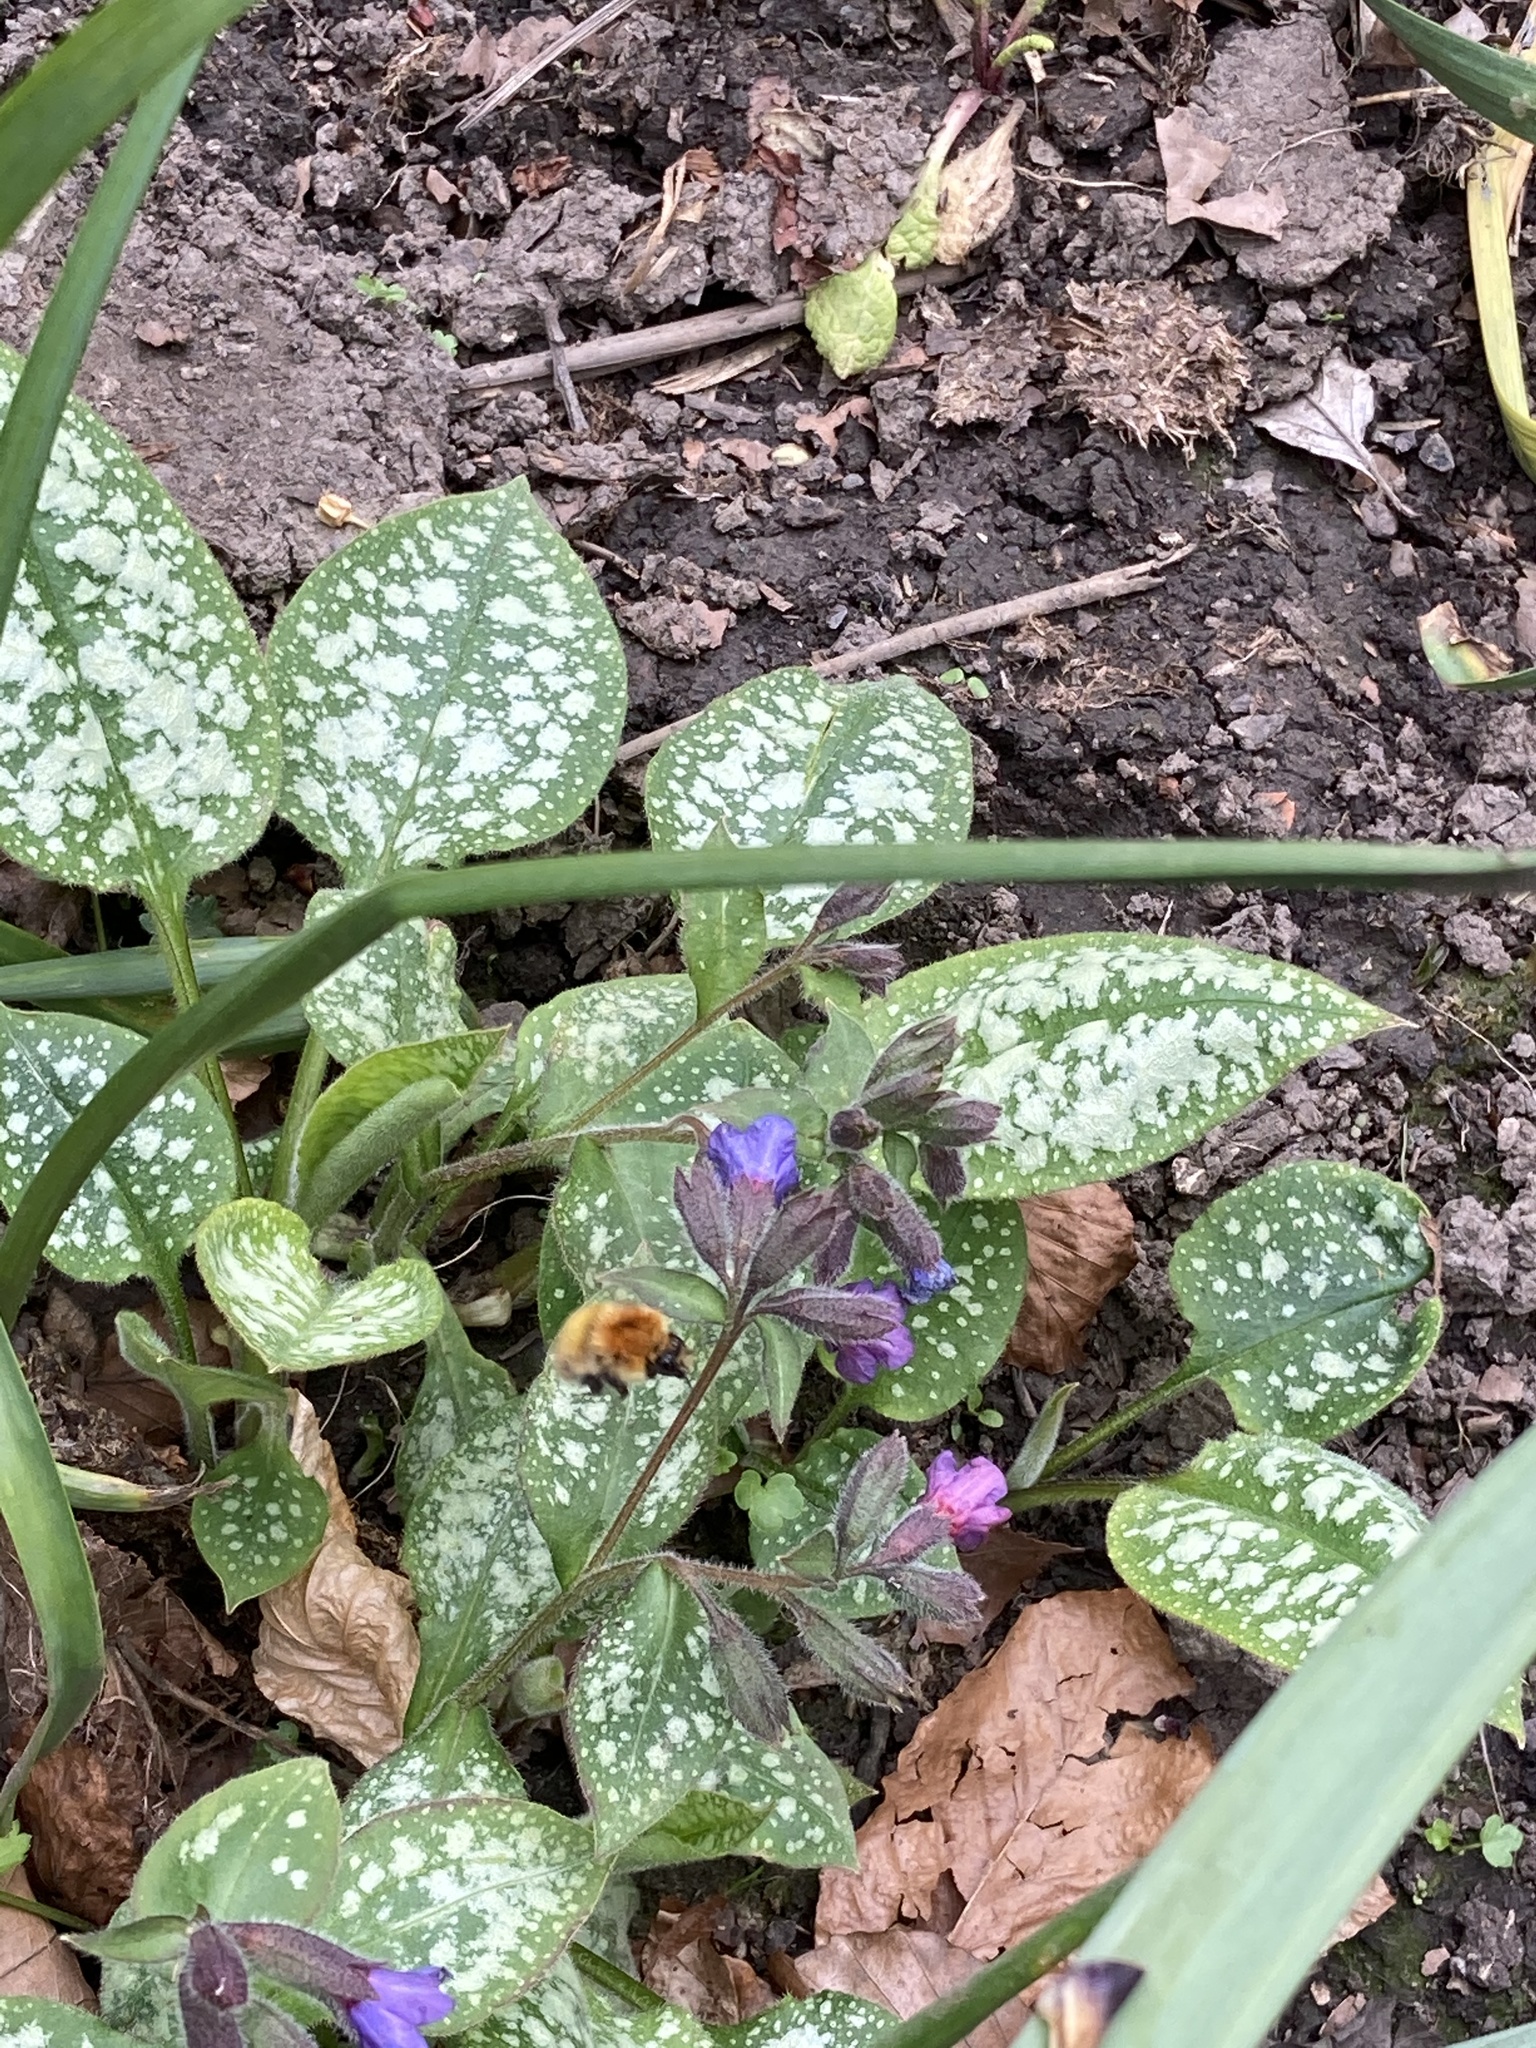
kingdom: Animalia
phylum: Arthropoda
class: Insecta
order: Hymenoptera
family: Apidae
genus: Bombus
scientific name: Bombus pascuorum
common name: Common carder bee
